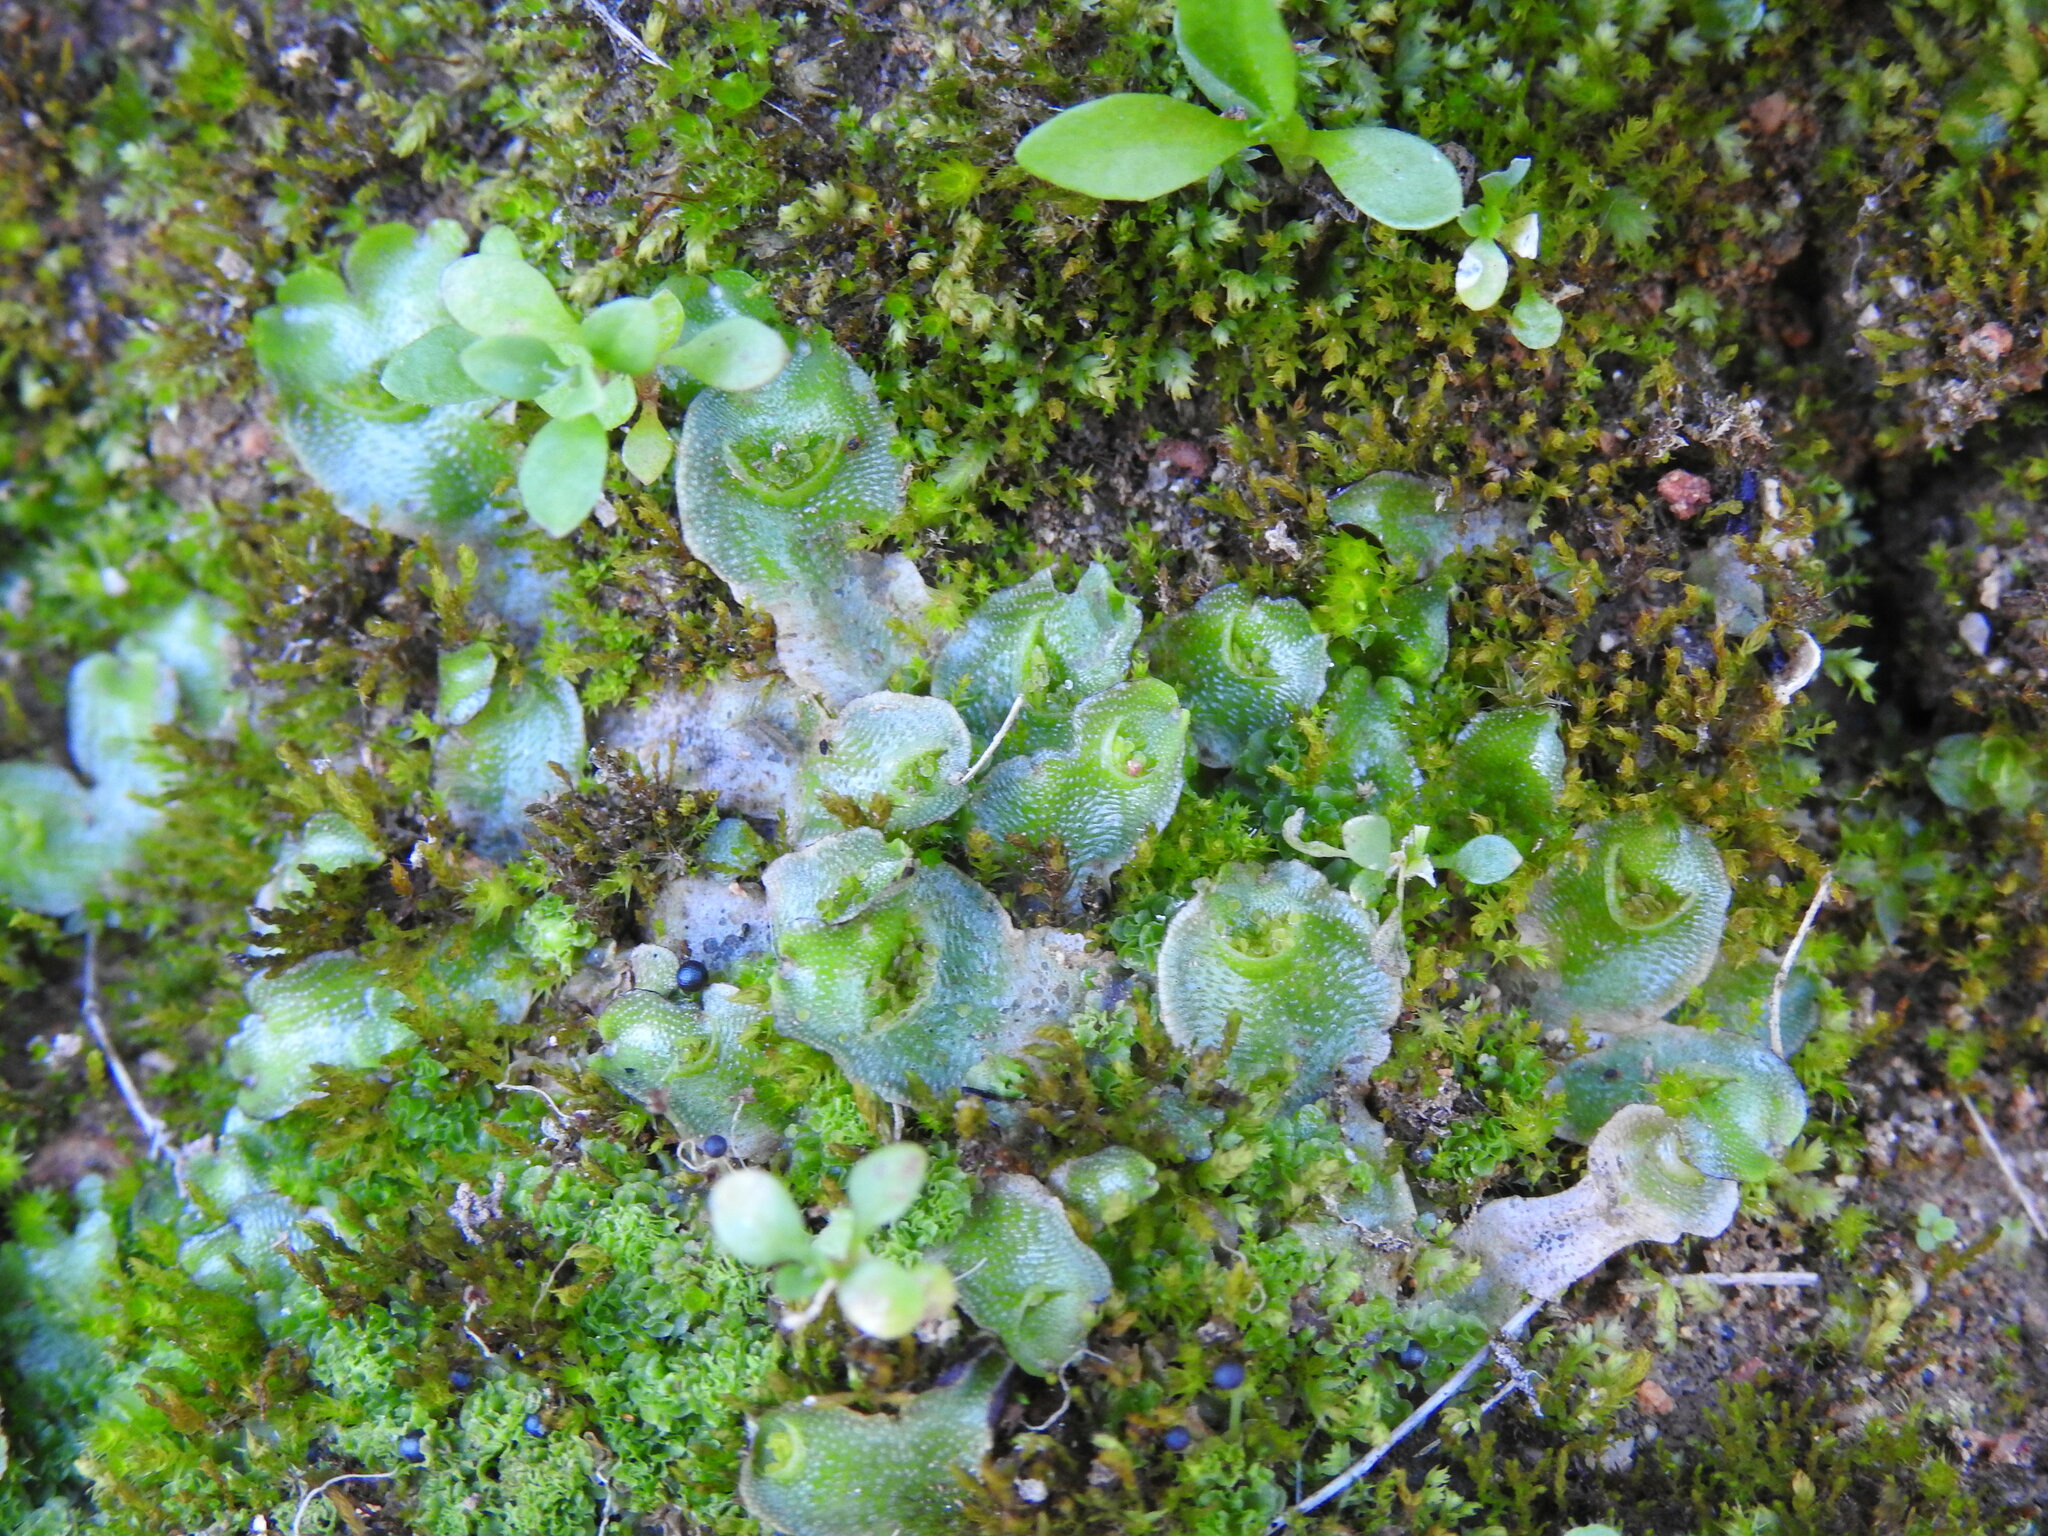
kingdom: Plantae
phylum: Marchantiophyta
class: Marchantiopsida
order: Lunulariales
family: Lunulariaceae
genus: Lunularia
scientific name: Lunularia cruciata
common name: Crescent-cup liverwort
